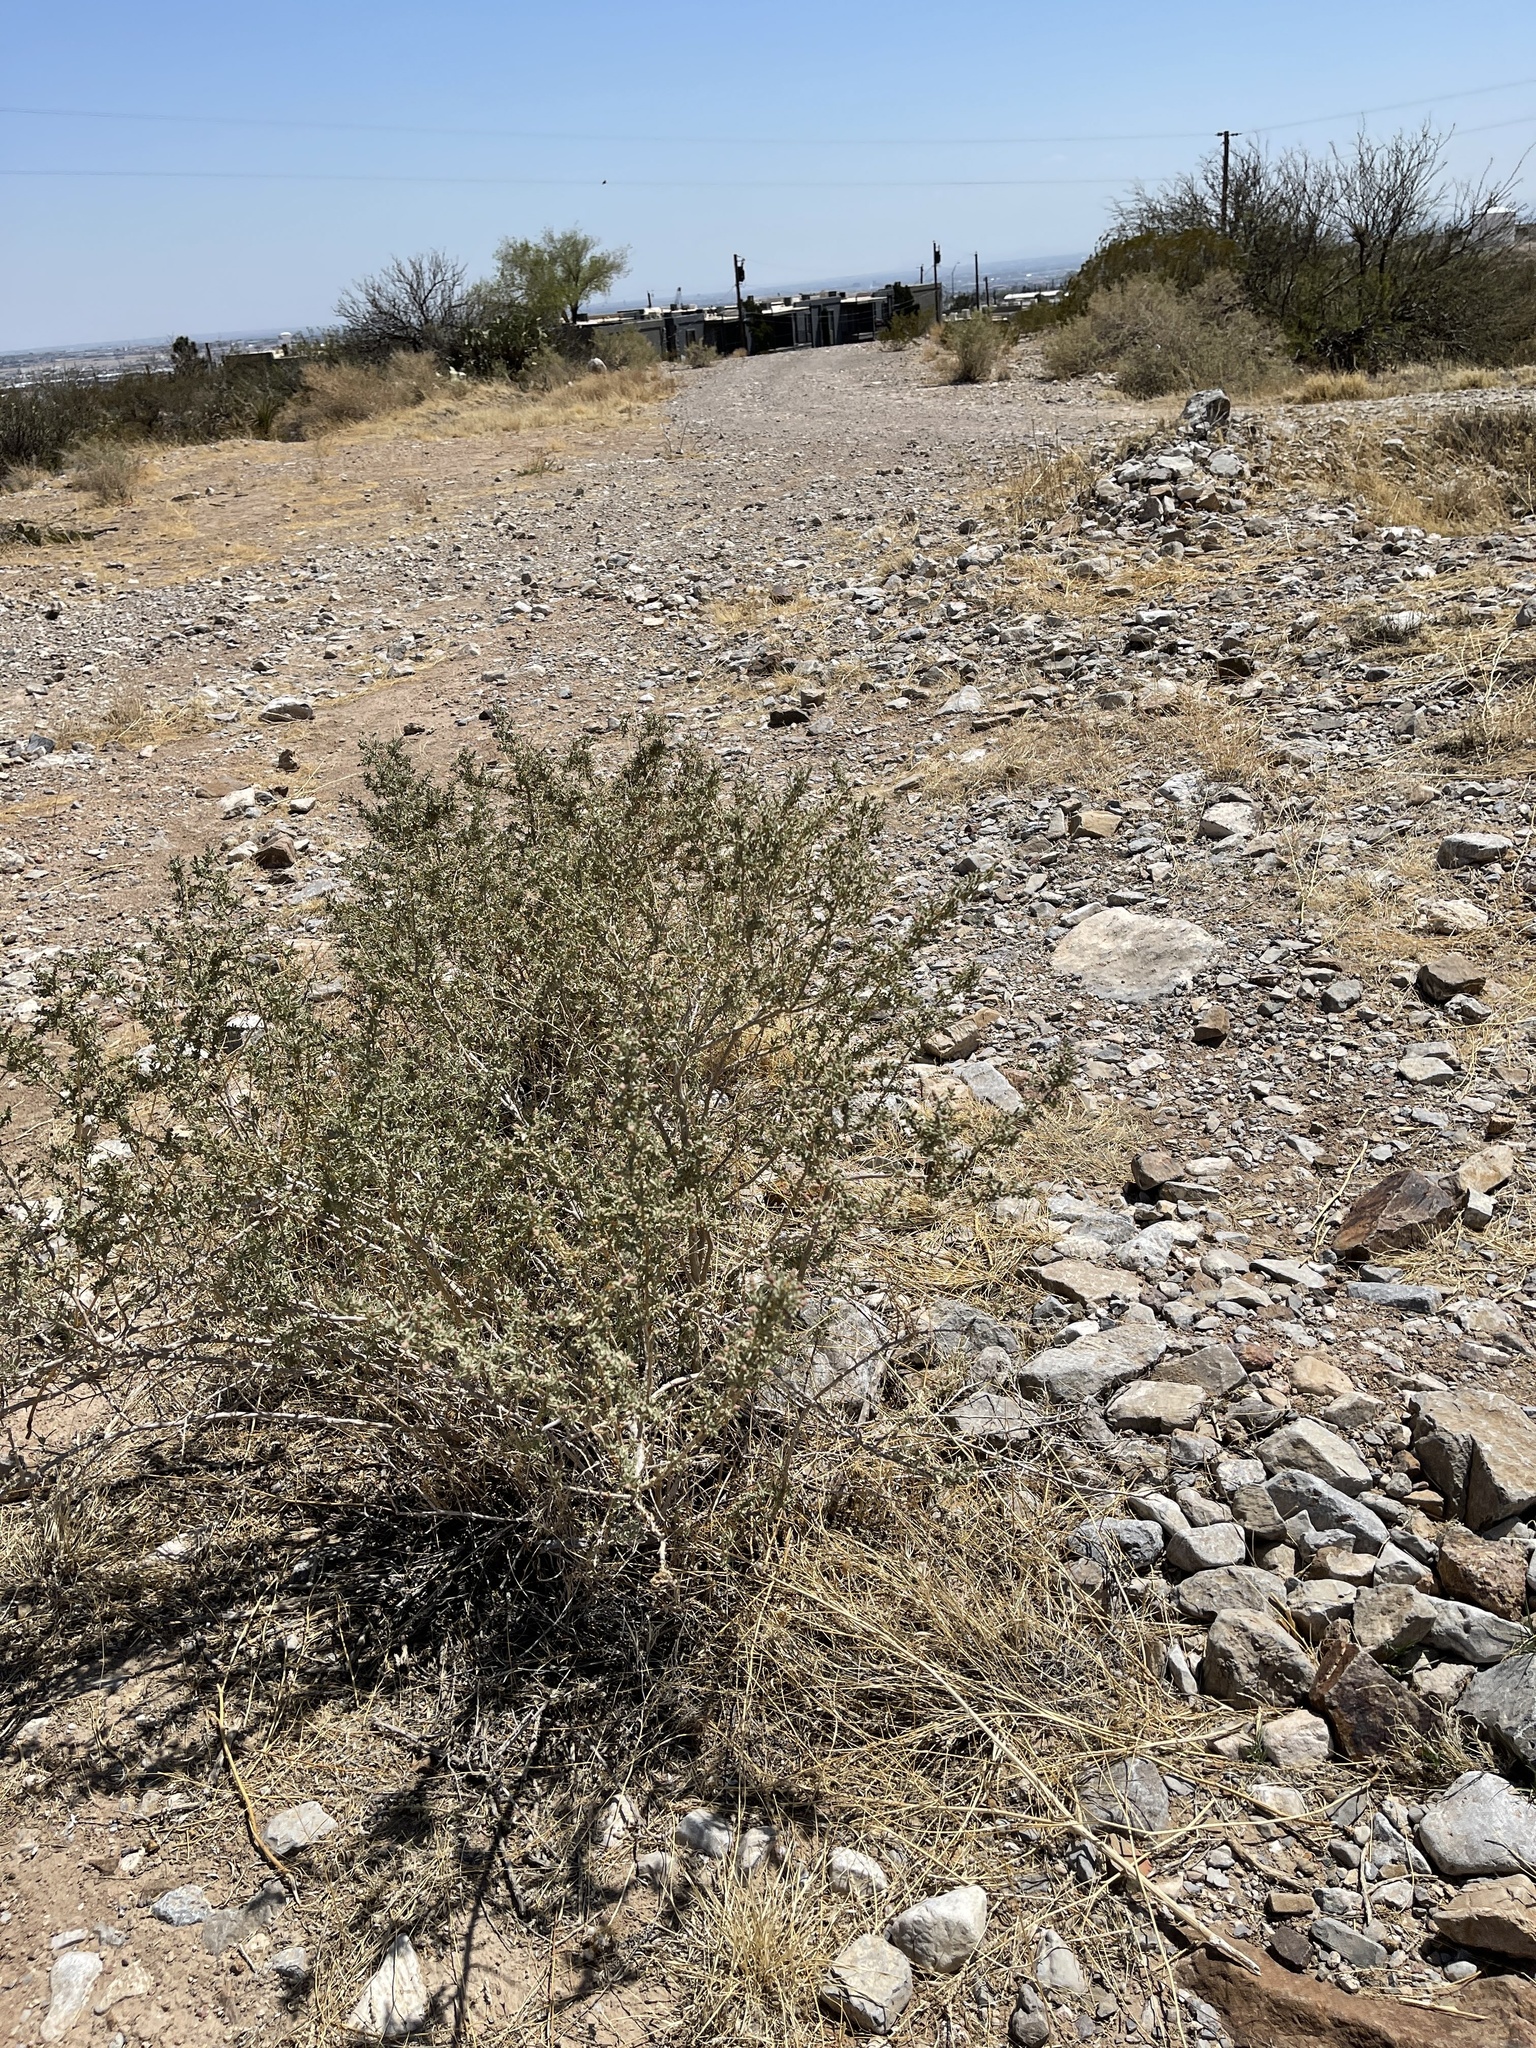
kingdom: Plantae
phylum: Tracheophyta
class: Magnoliopsida
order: Caryophyllales
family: Amaranthaceae
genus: Atriplex
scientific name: Atriplex canescens
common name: Four-wing saltbush
